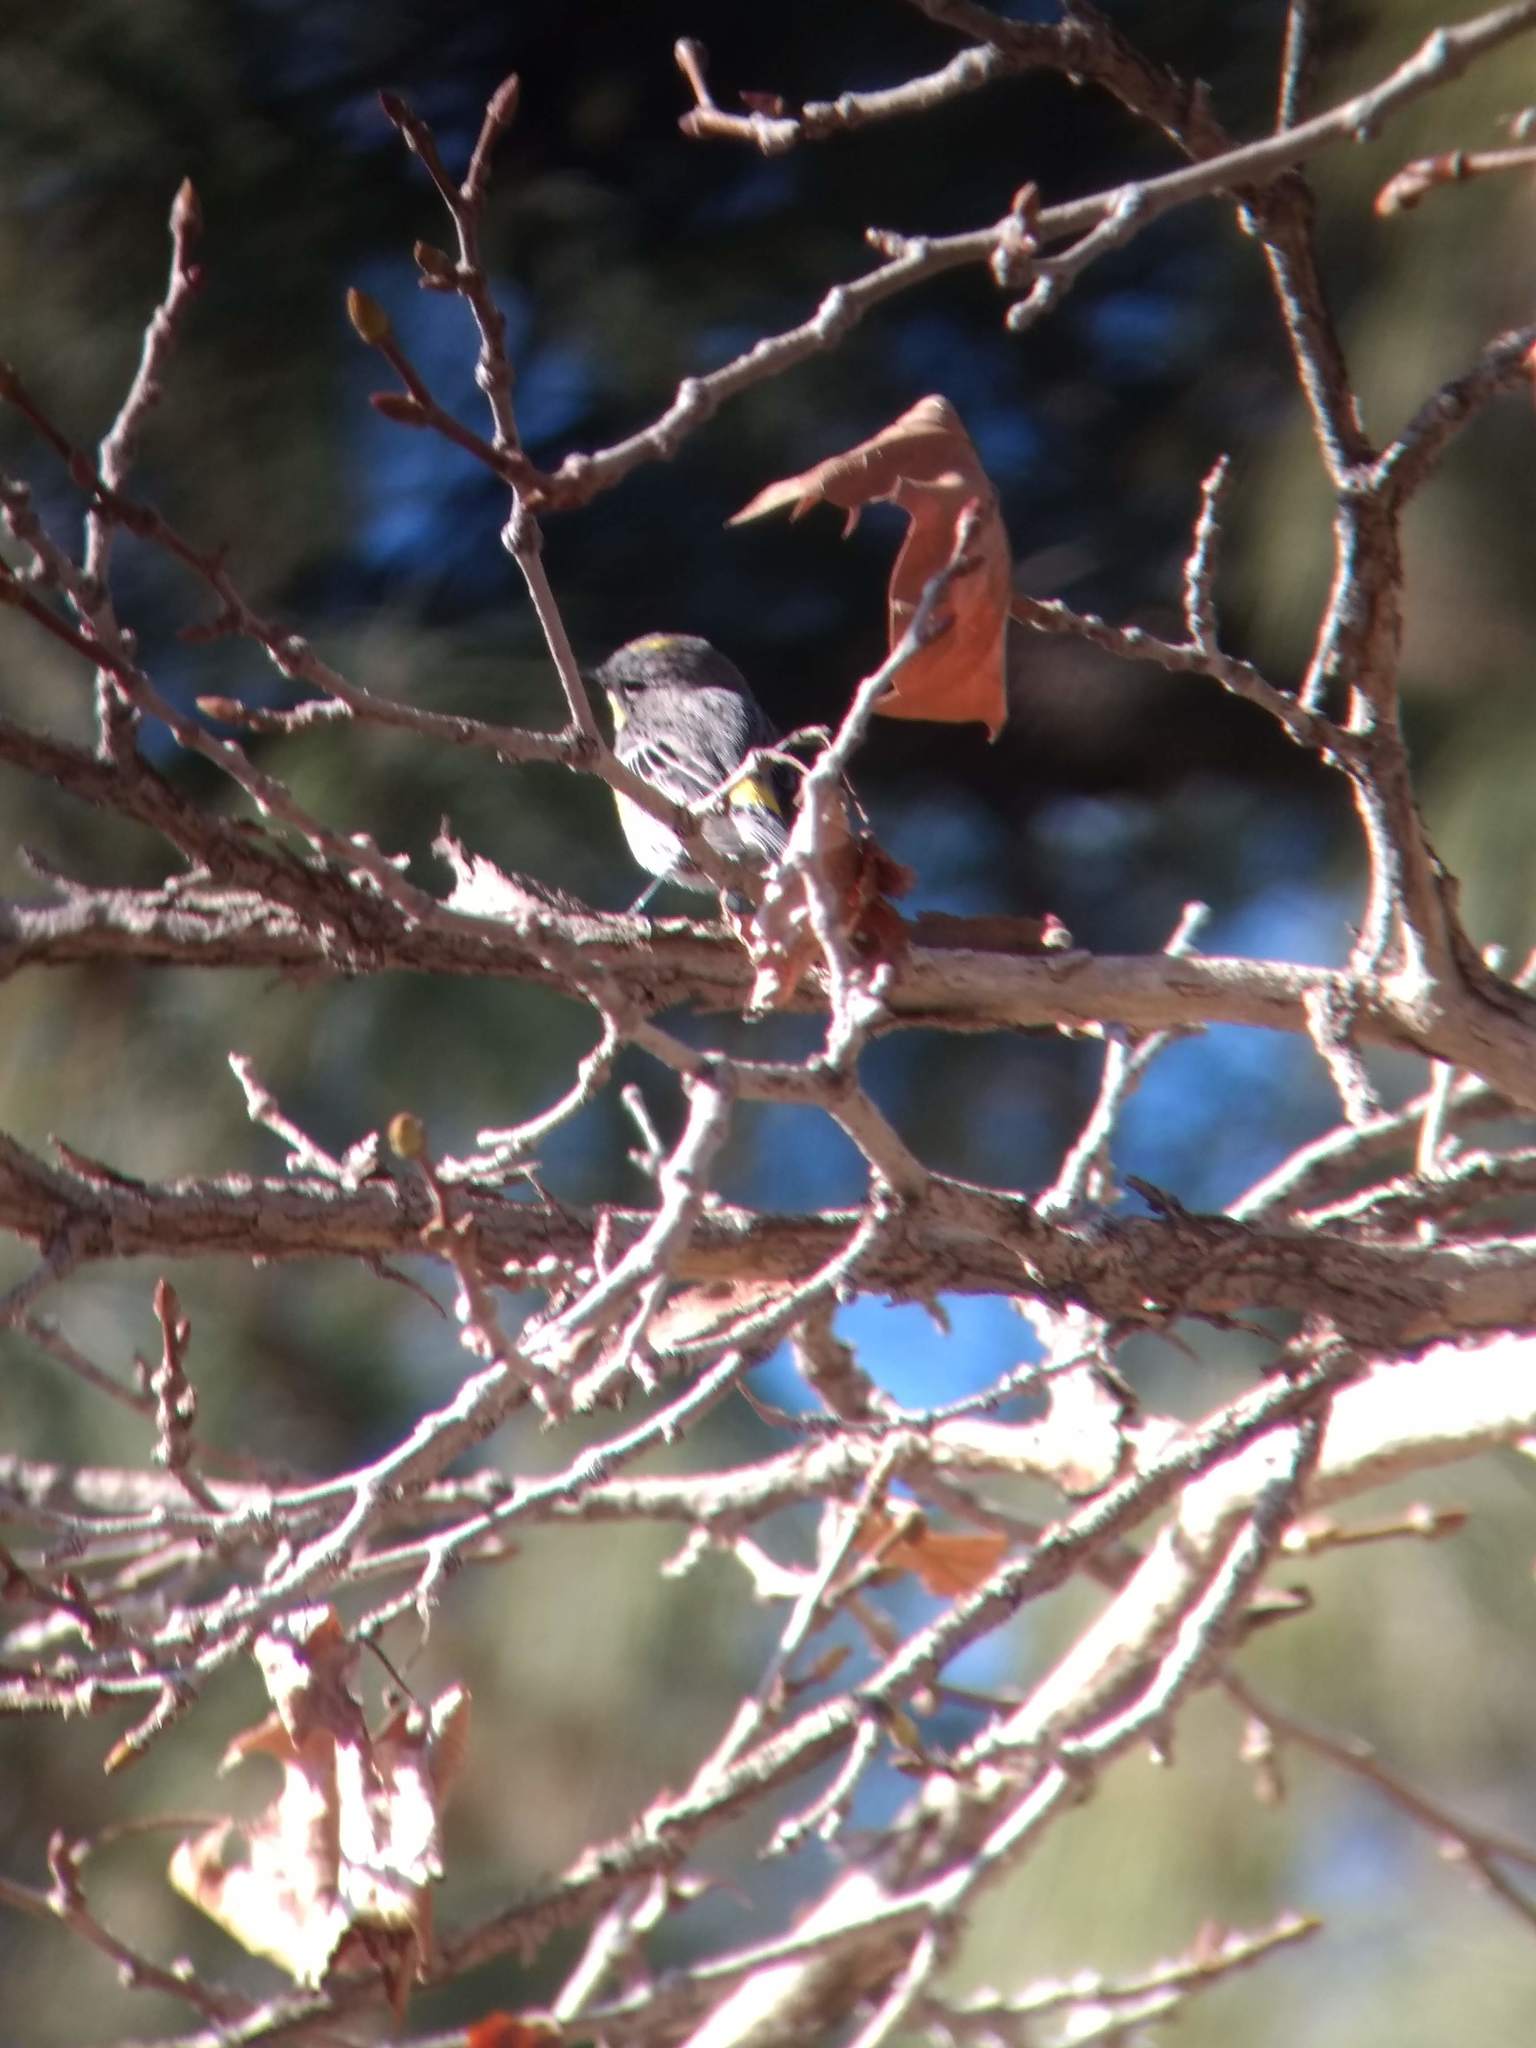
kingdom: Animalia
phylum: Chordata
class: Aves
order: Passeriformes
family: Parulidae
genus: Setophaga
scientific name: Setophaga coronata
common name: Myrtle warbler
